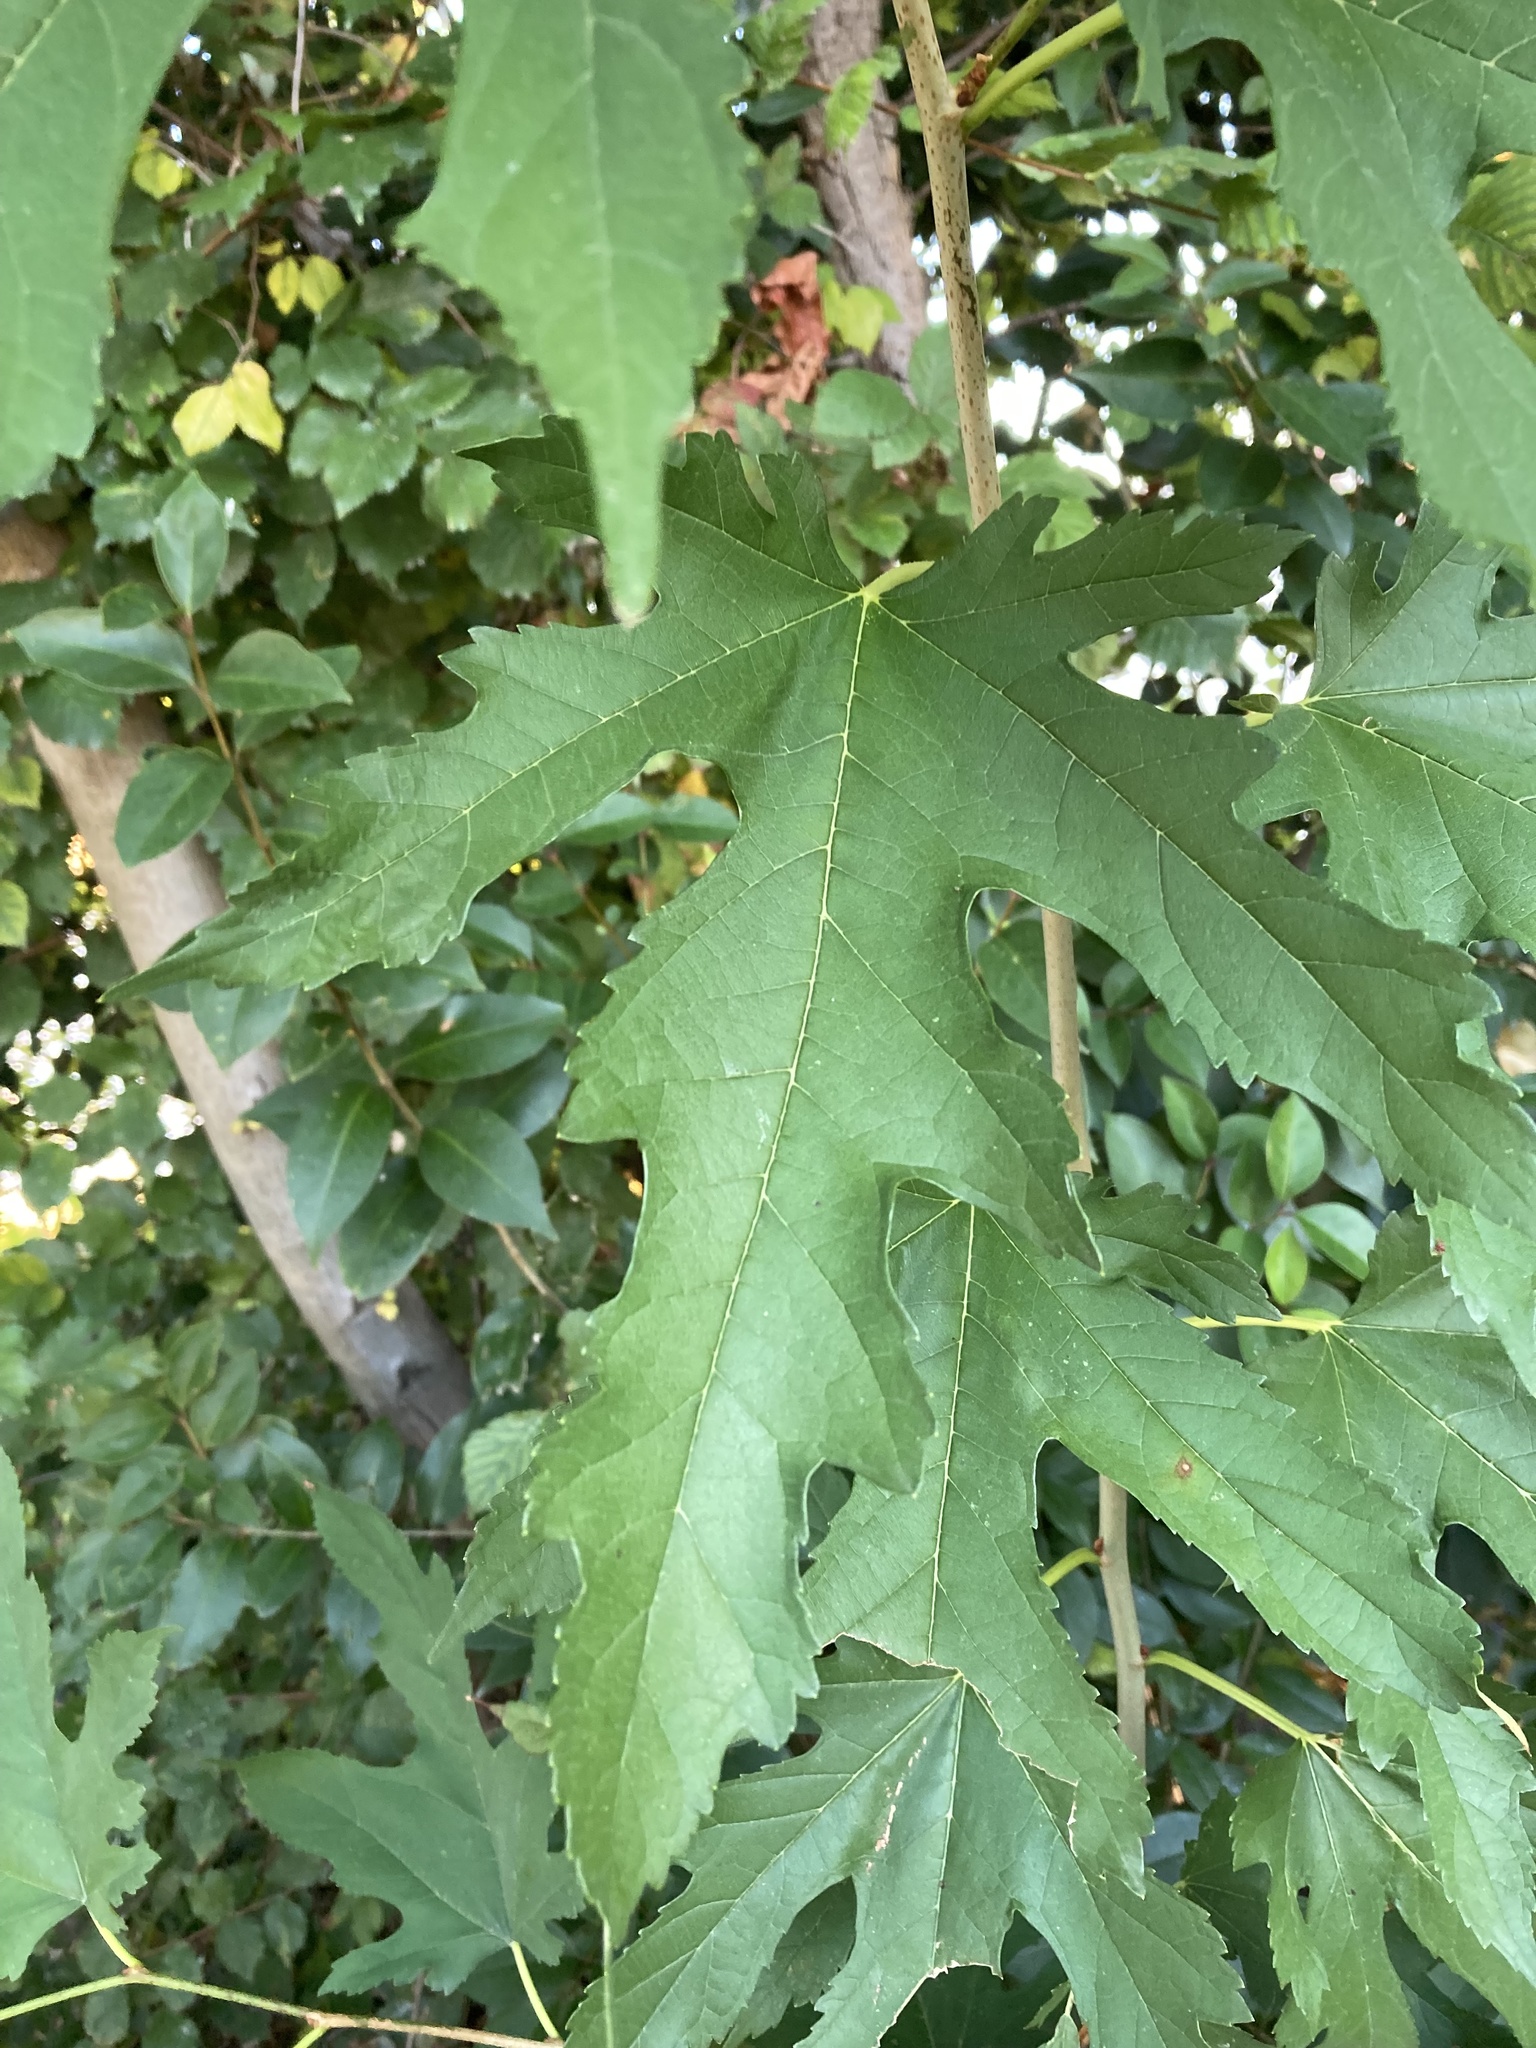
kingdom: Plantae
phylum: Tracheophyta
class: Magnoliopsida
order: Sapindales
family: Sapindaceae
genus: Acer
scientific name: Acer saccharinum
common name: Silver maple
